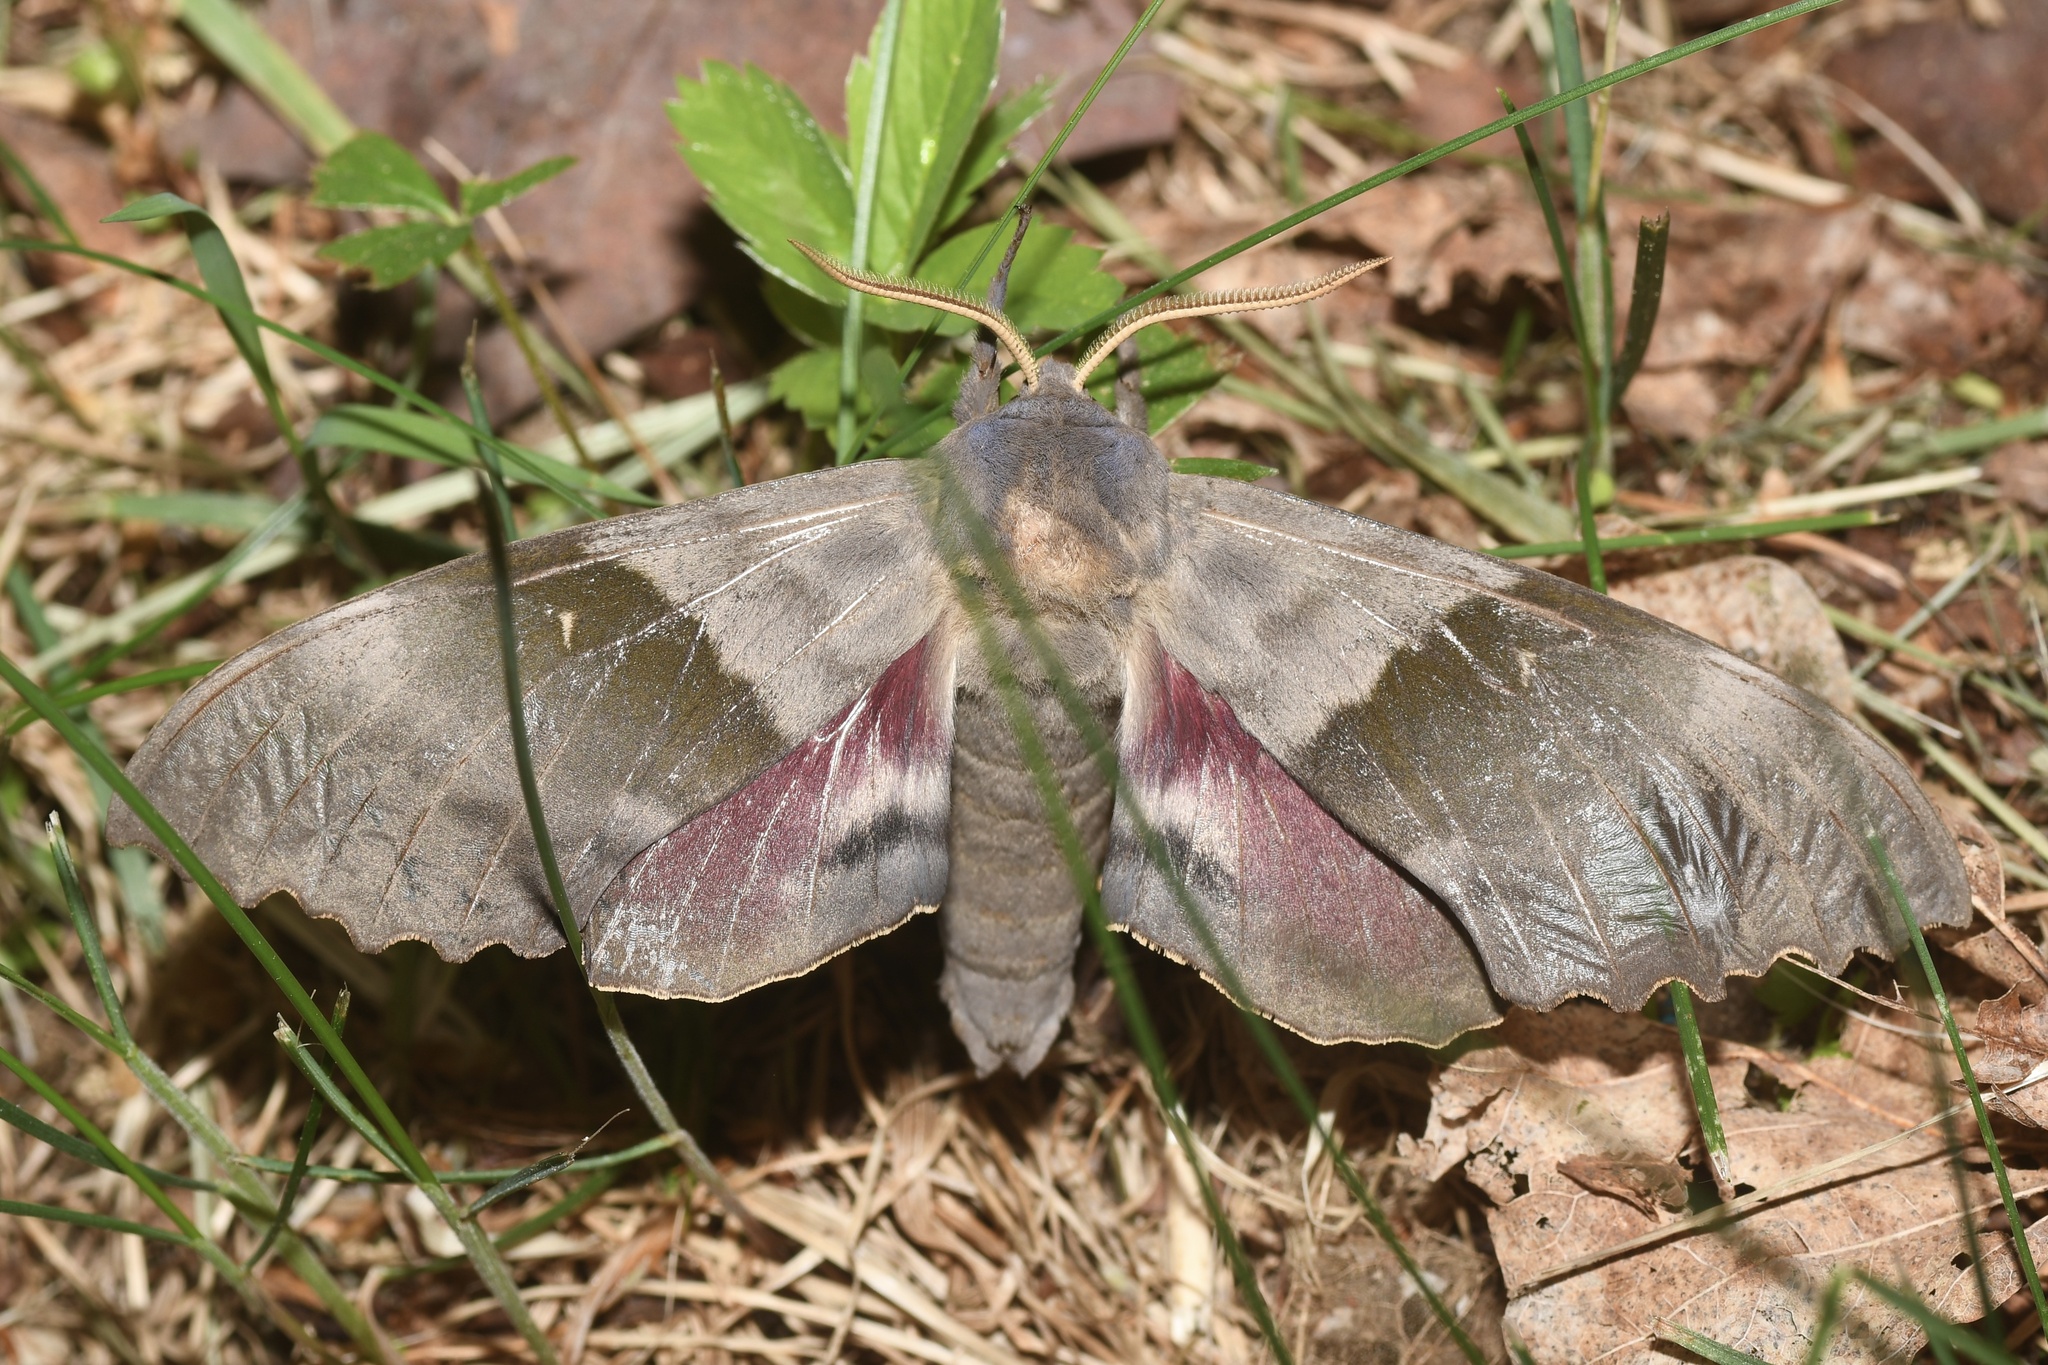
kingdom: Animalia
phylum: Arthropoda
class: Insecta
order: Lepidoptera
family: Sphingidae
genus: Pachysphinx
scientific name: Pachysphinx modesta
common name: Big poplar sphinx
